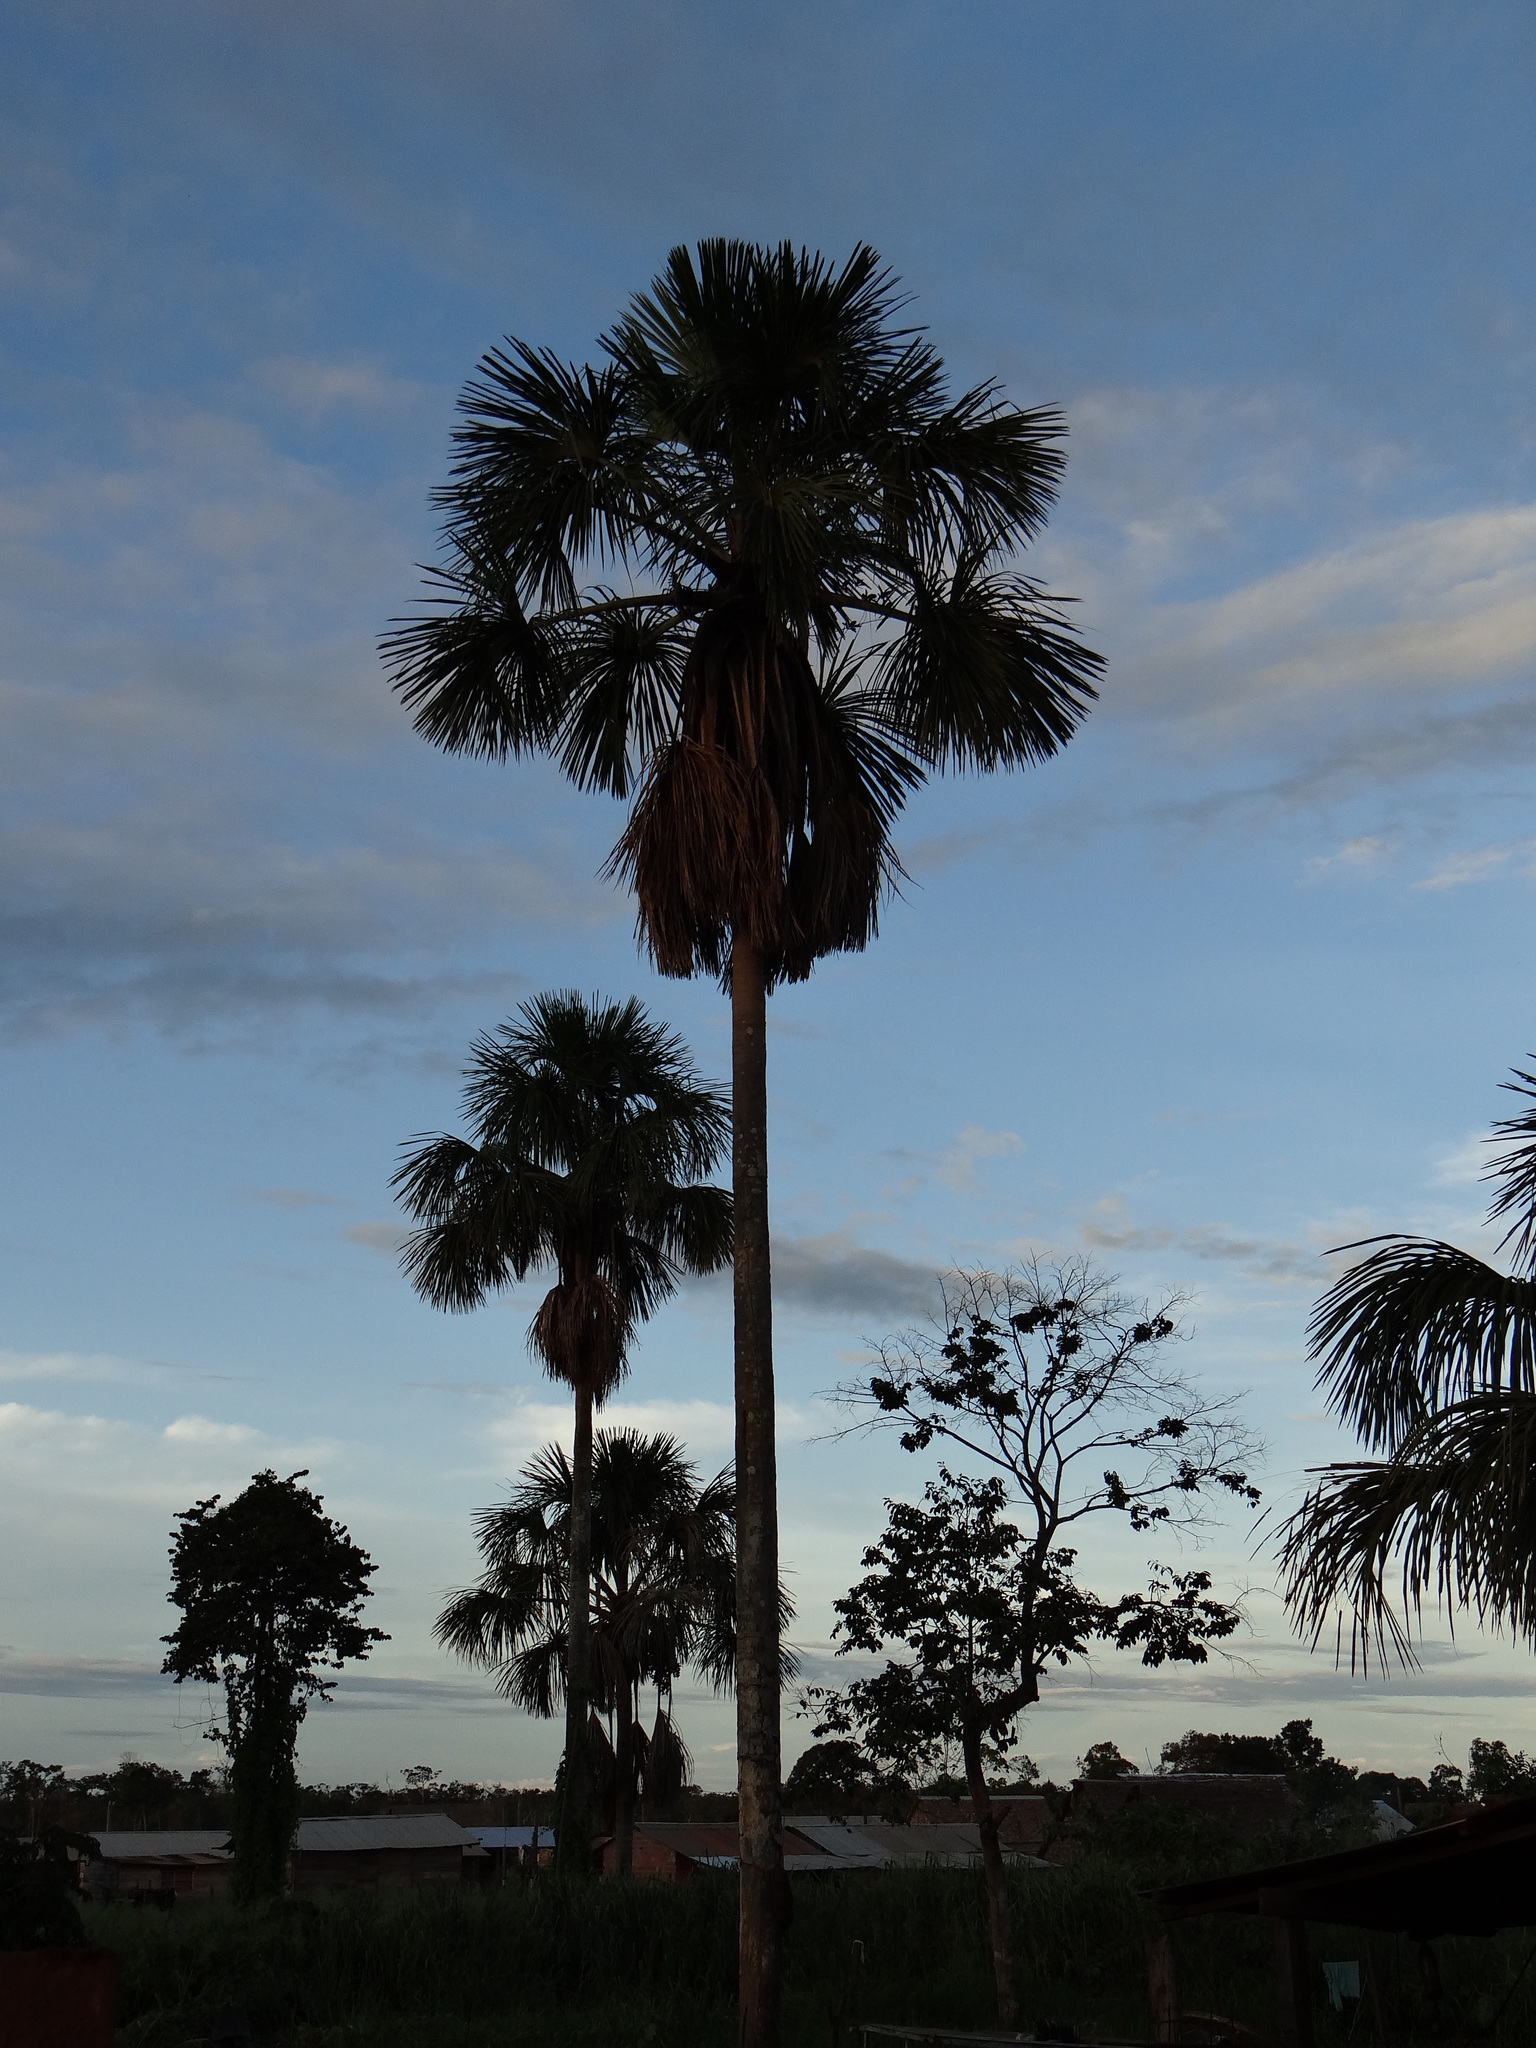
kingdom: Plantae
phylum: Tracheophyta
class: Liliopsida
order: Arecales
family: Arecaceae
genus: Mauritia
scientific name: Mauritia flexuosa
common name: Tree-of-life
